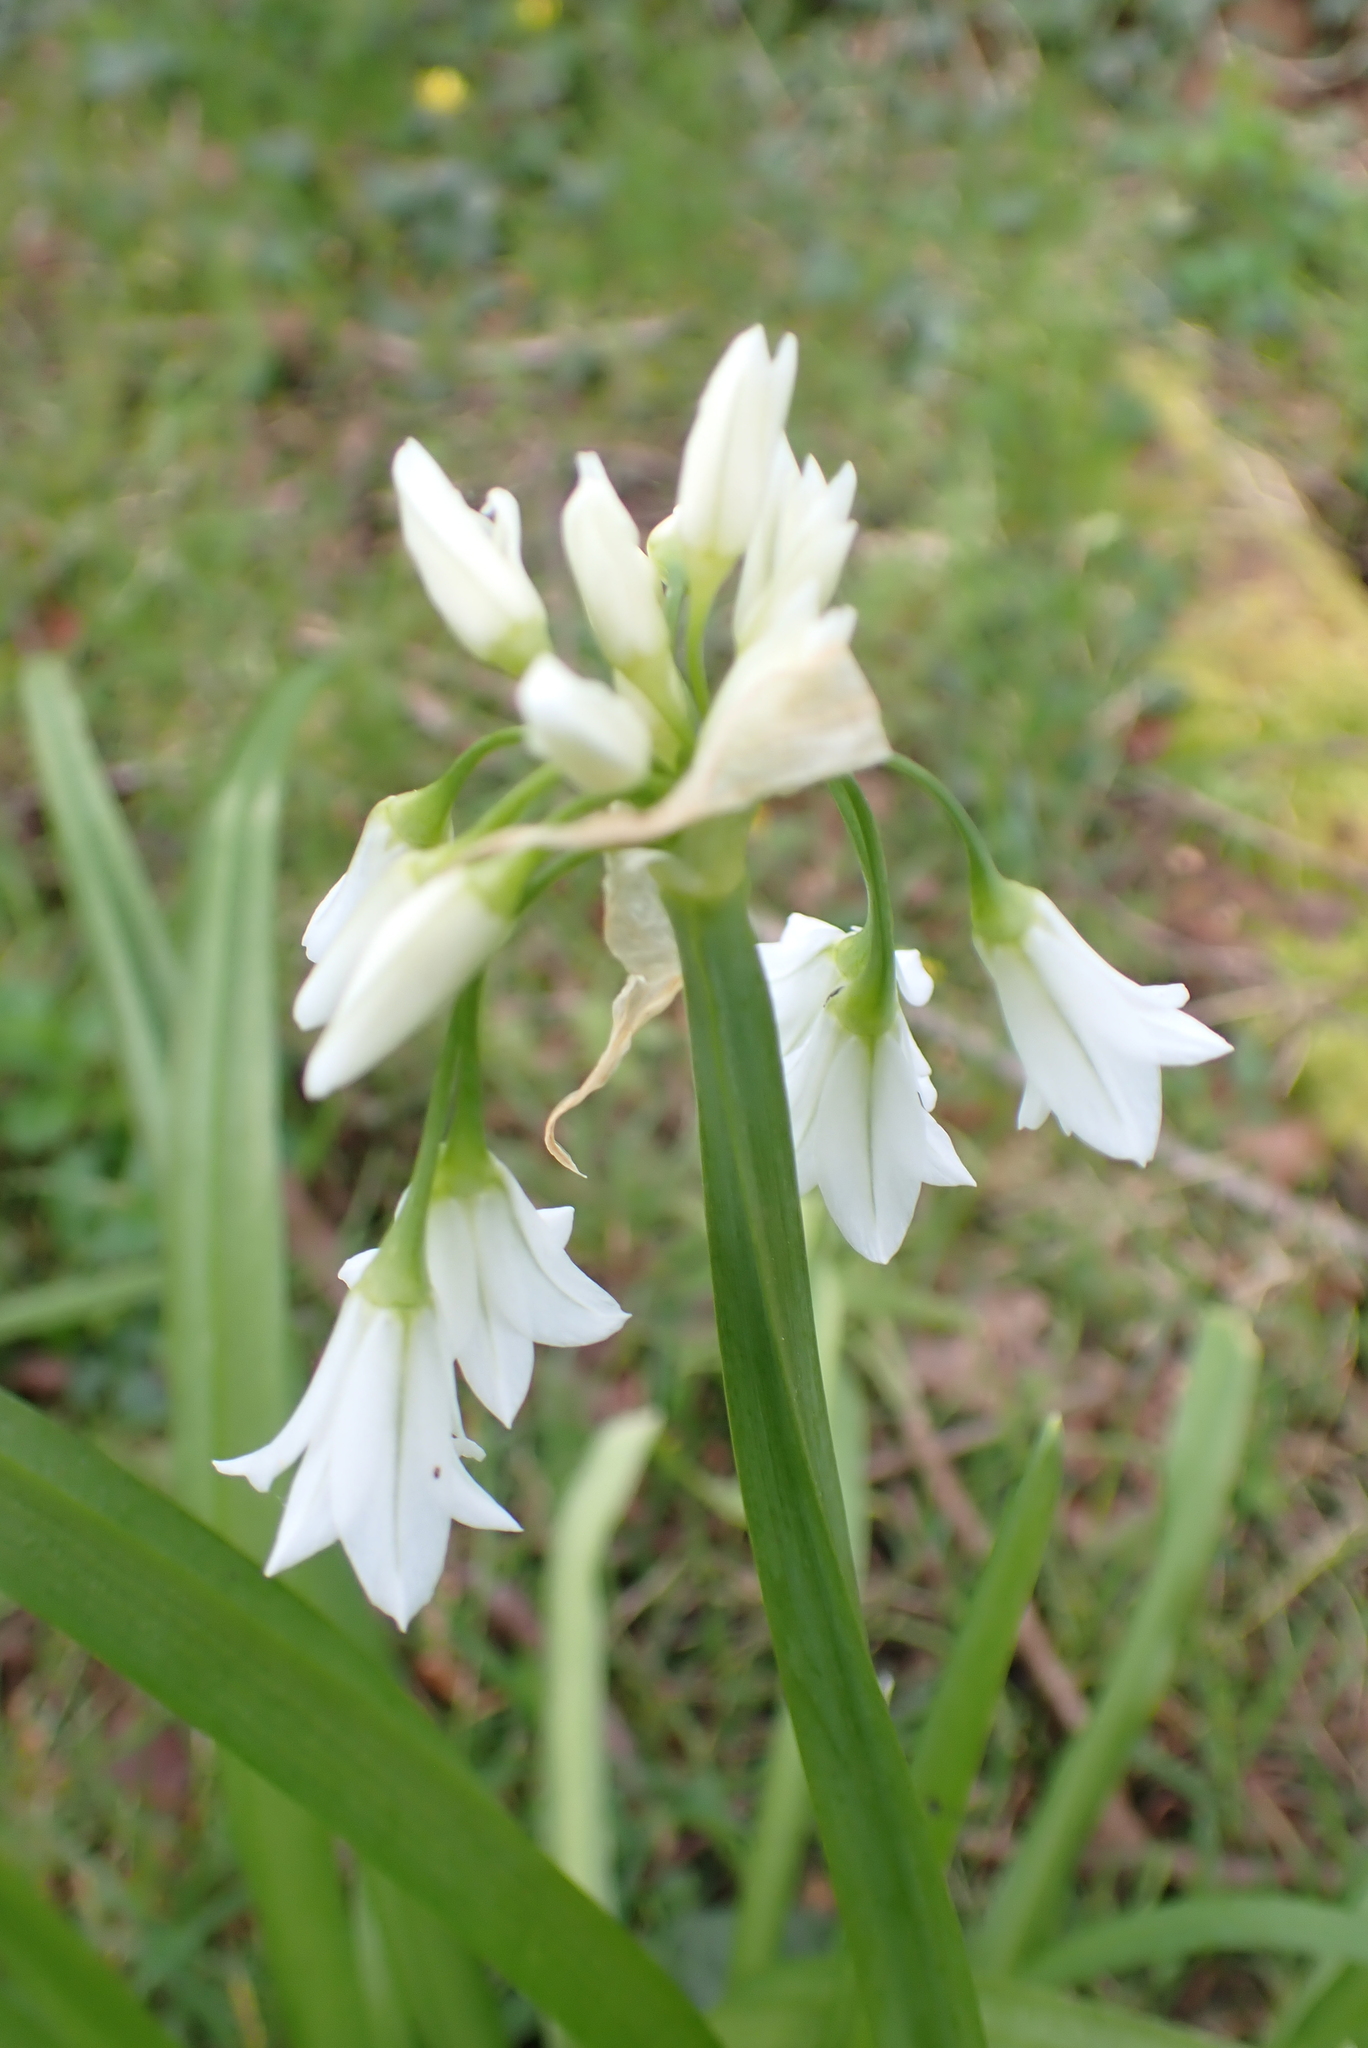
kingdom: Plantae
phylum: Tracheophyta
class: Liliopsida
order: Asparagales
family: Amaryllidaceae
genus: Allium
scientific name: Allium triquetrum
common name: Three-cornered garlic
